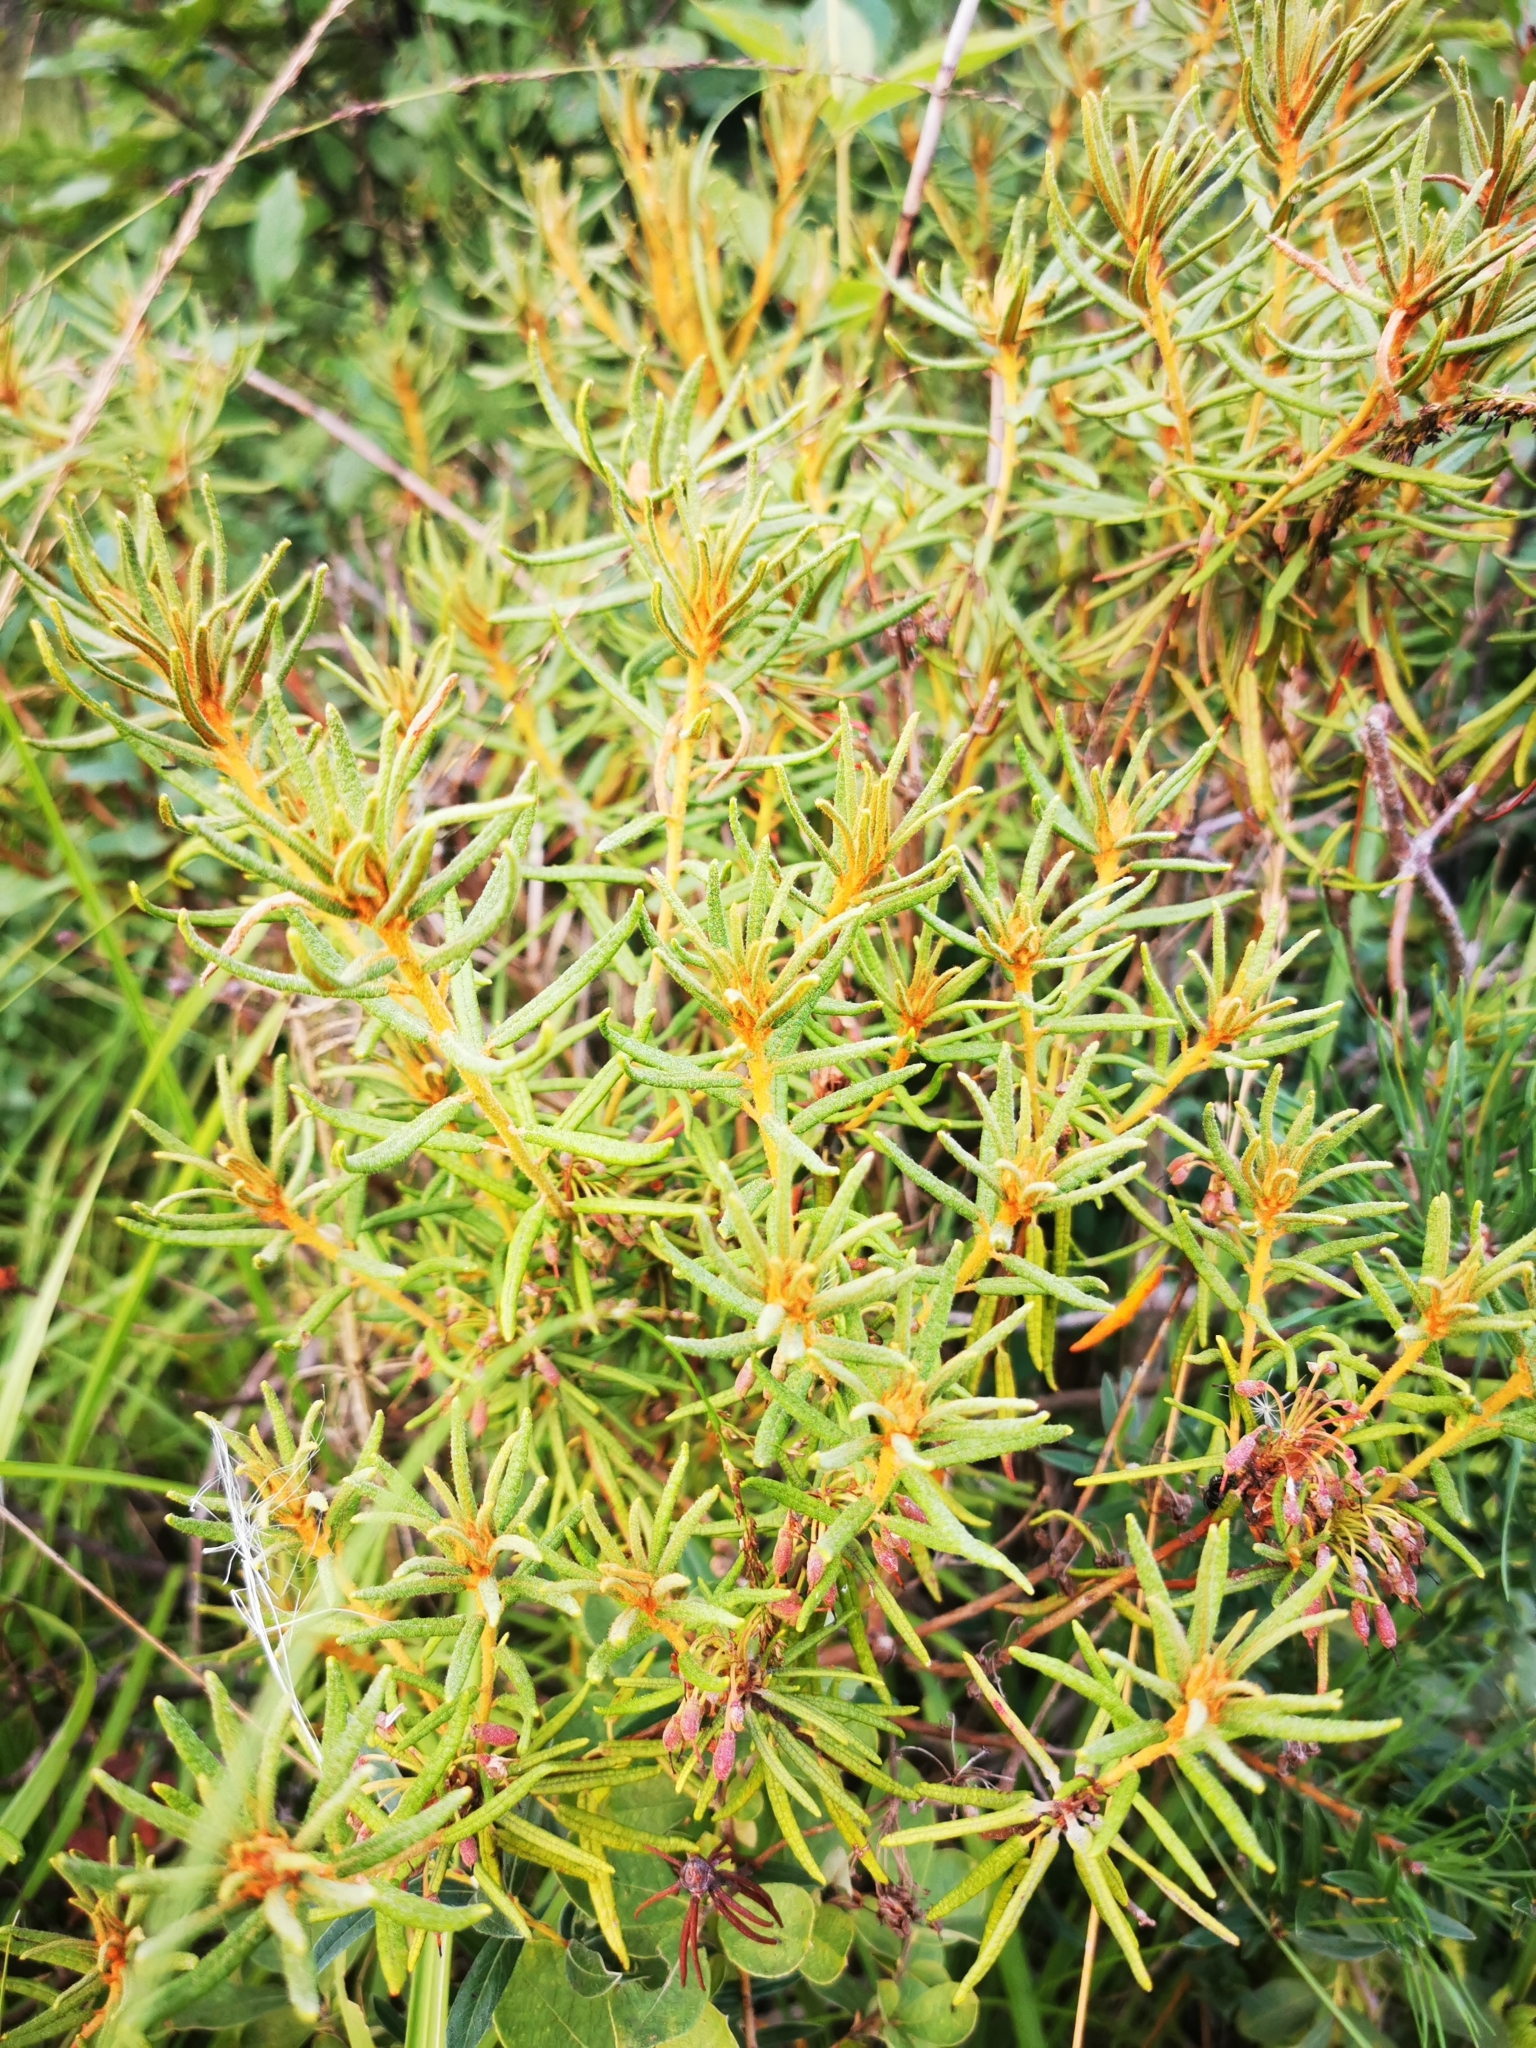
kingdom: Plantae
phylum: Tracheophyta
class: Magnoliopsida
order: Ericales
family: Ericaceae
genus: Rhododendron
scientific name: Rhododendron tomentosum
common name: Marsh labrador tea
